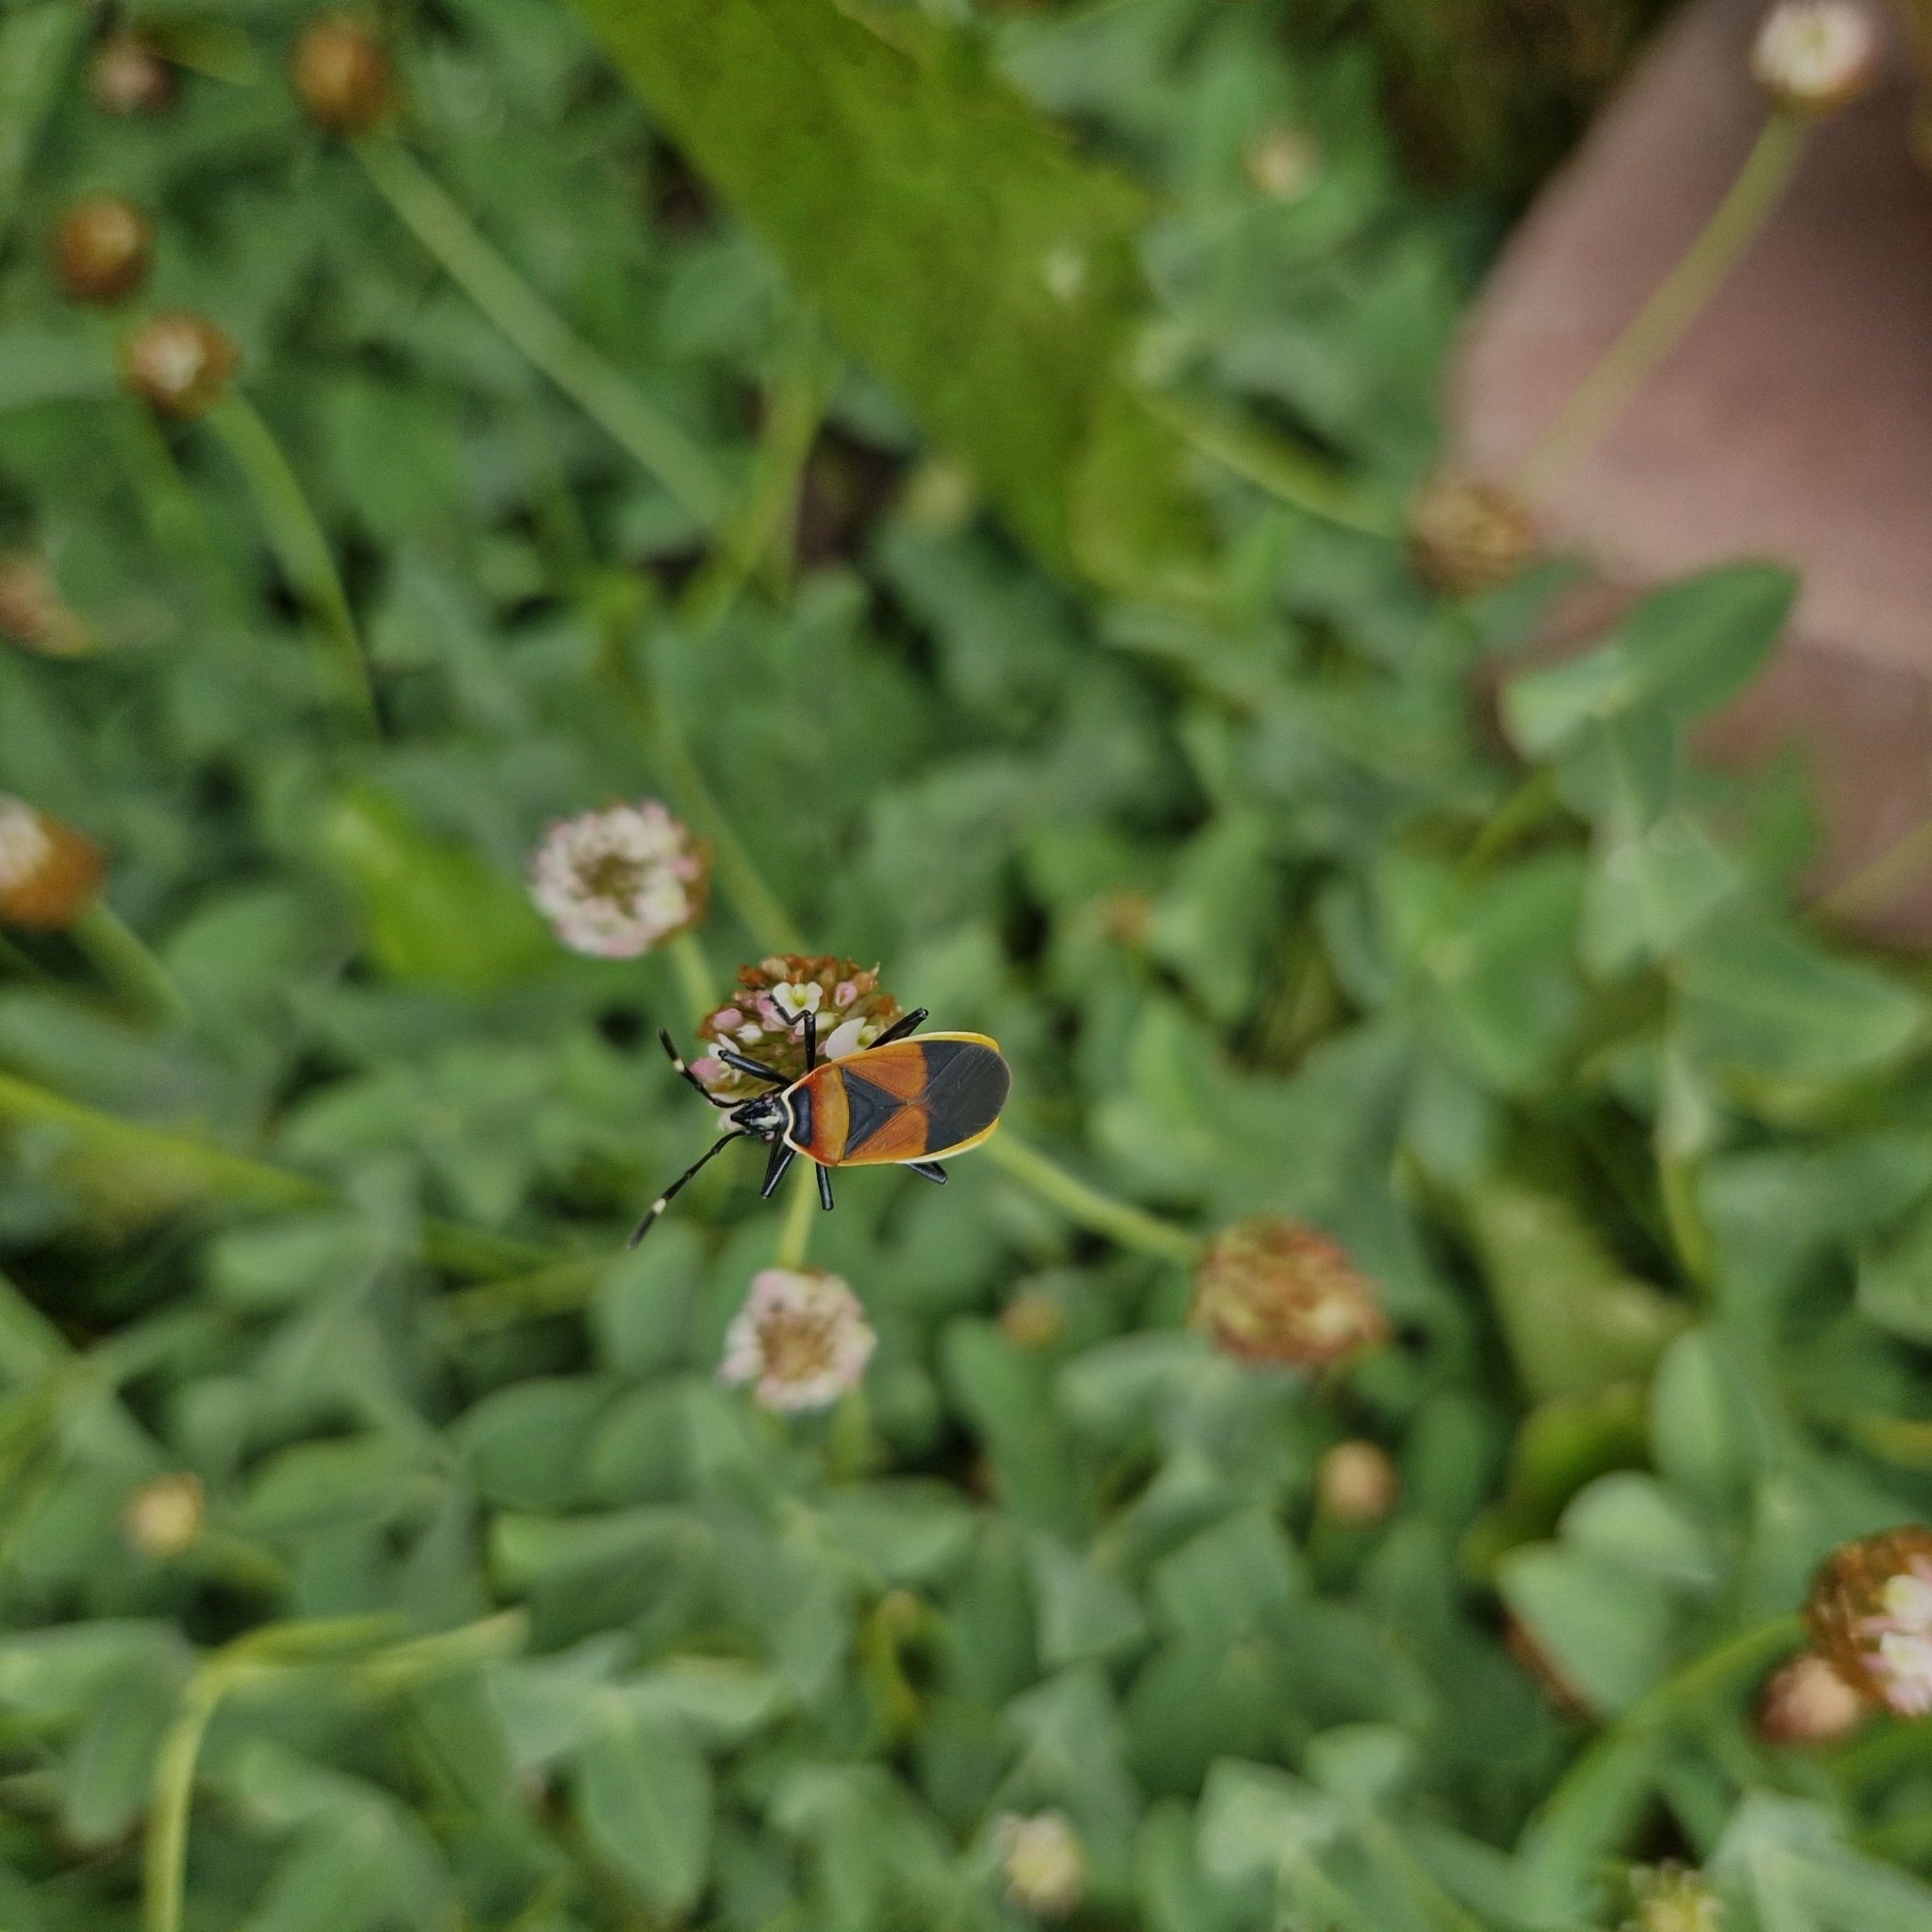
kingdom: Animalia
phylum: Arthropoda
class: Insecta
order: Hemiptera
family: Pyrrhocoridae
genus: Dindymus
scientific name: Dindymus
